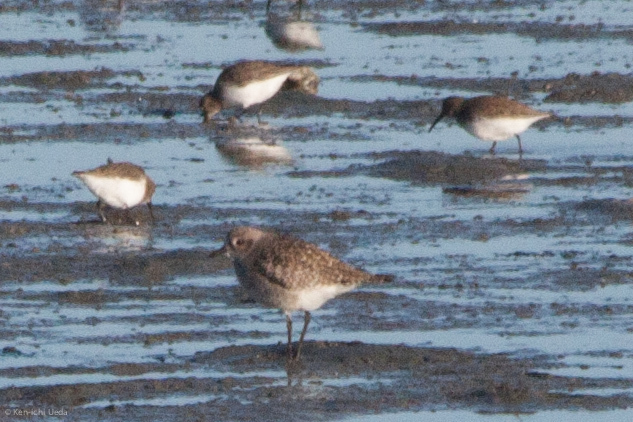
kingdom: Animalia
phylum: Chordata
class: Aves
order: Charadriiformes
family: Scolopacidae
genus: Calidris
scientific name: Calidris alpina
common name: Dunlin
